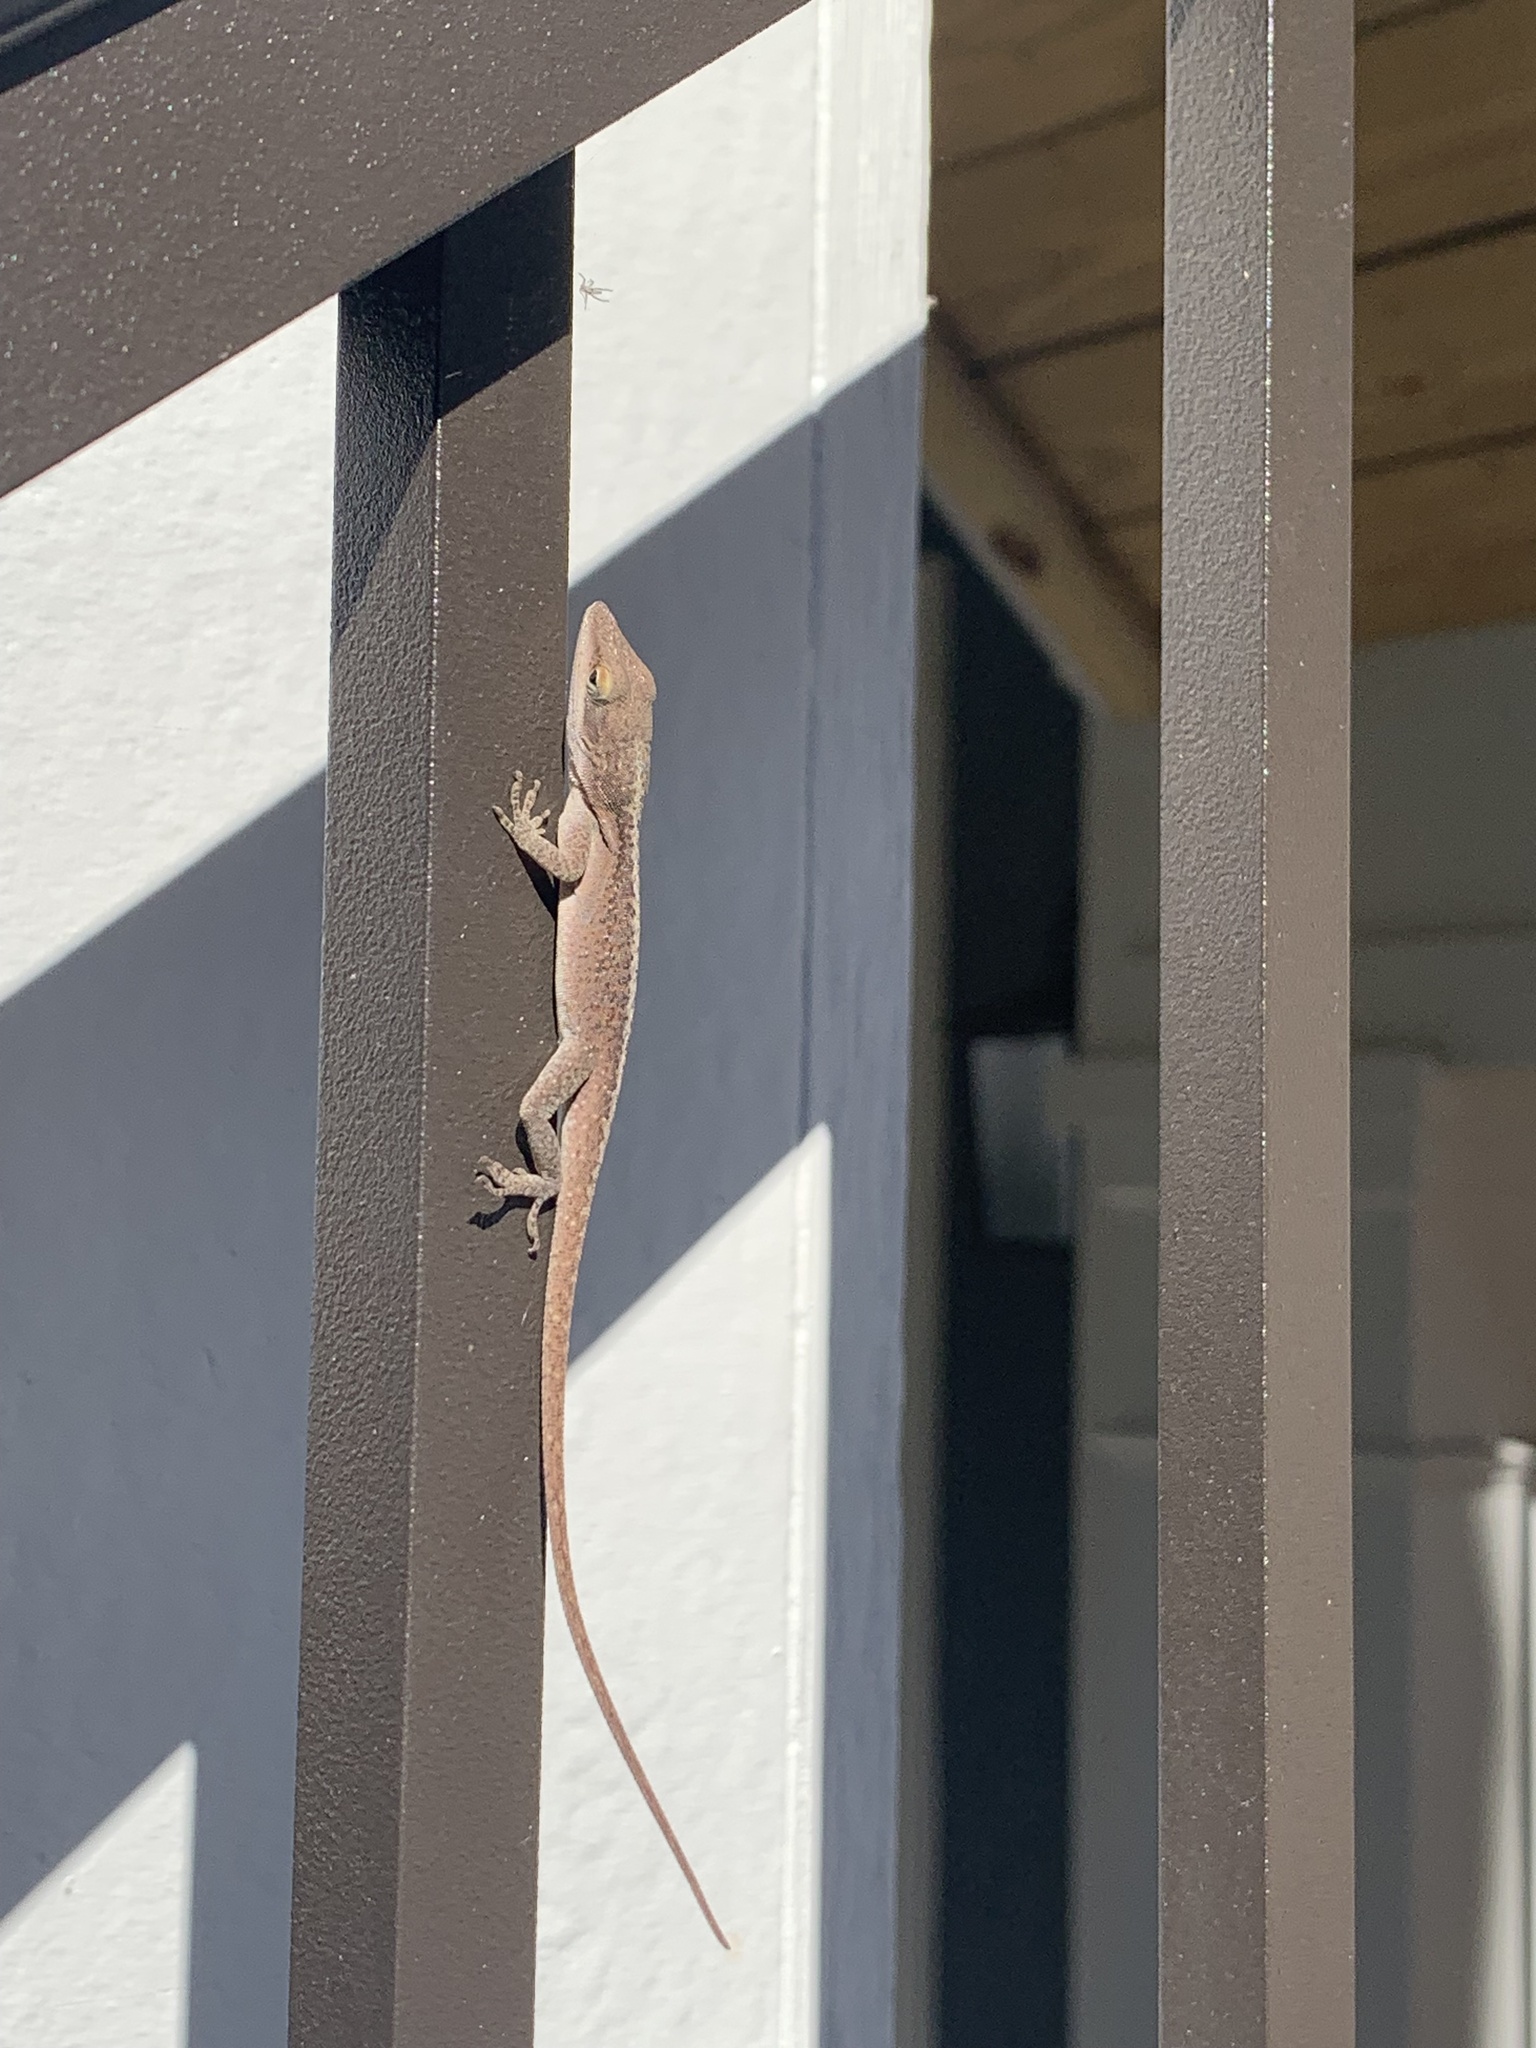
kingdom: Animalia
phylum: Chordata
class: Squamata
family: Dactyloidae
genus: Anolis
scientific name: Anolis carolinensis
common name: Green anole
